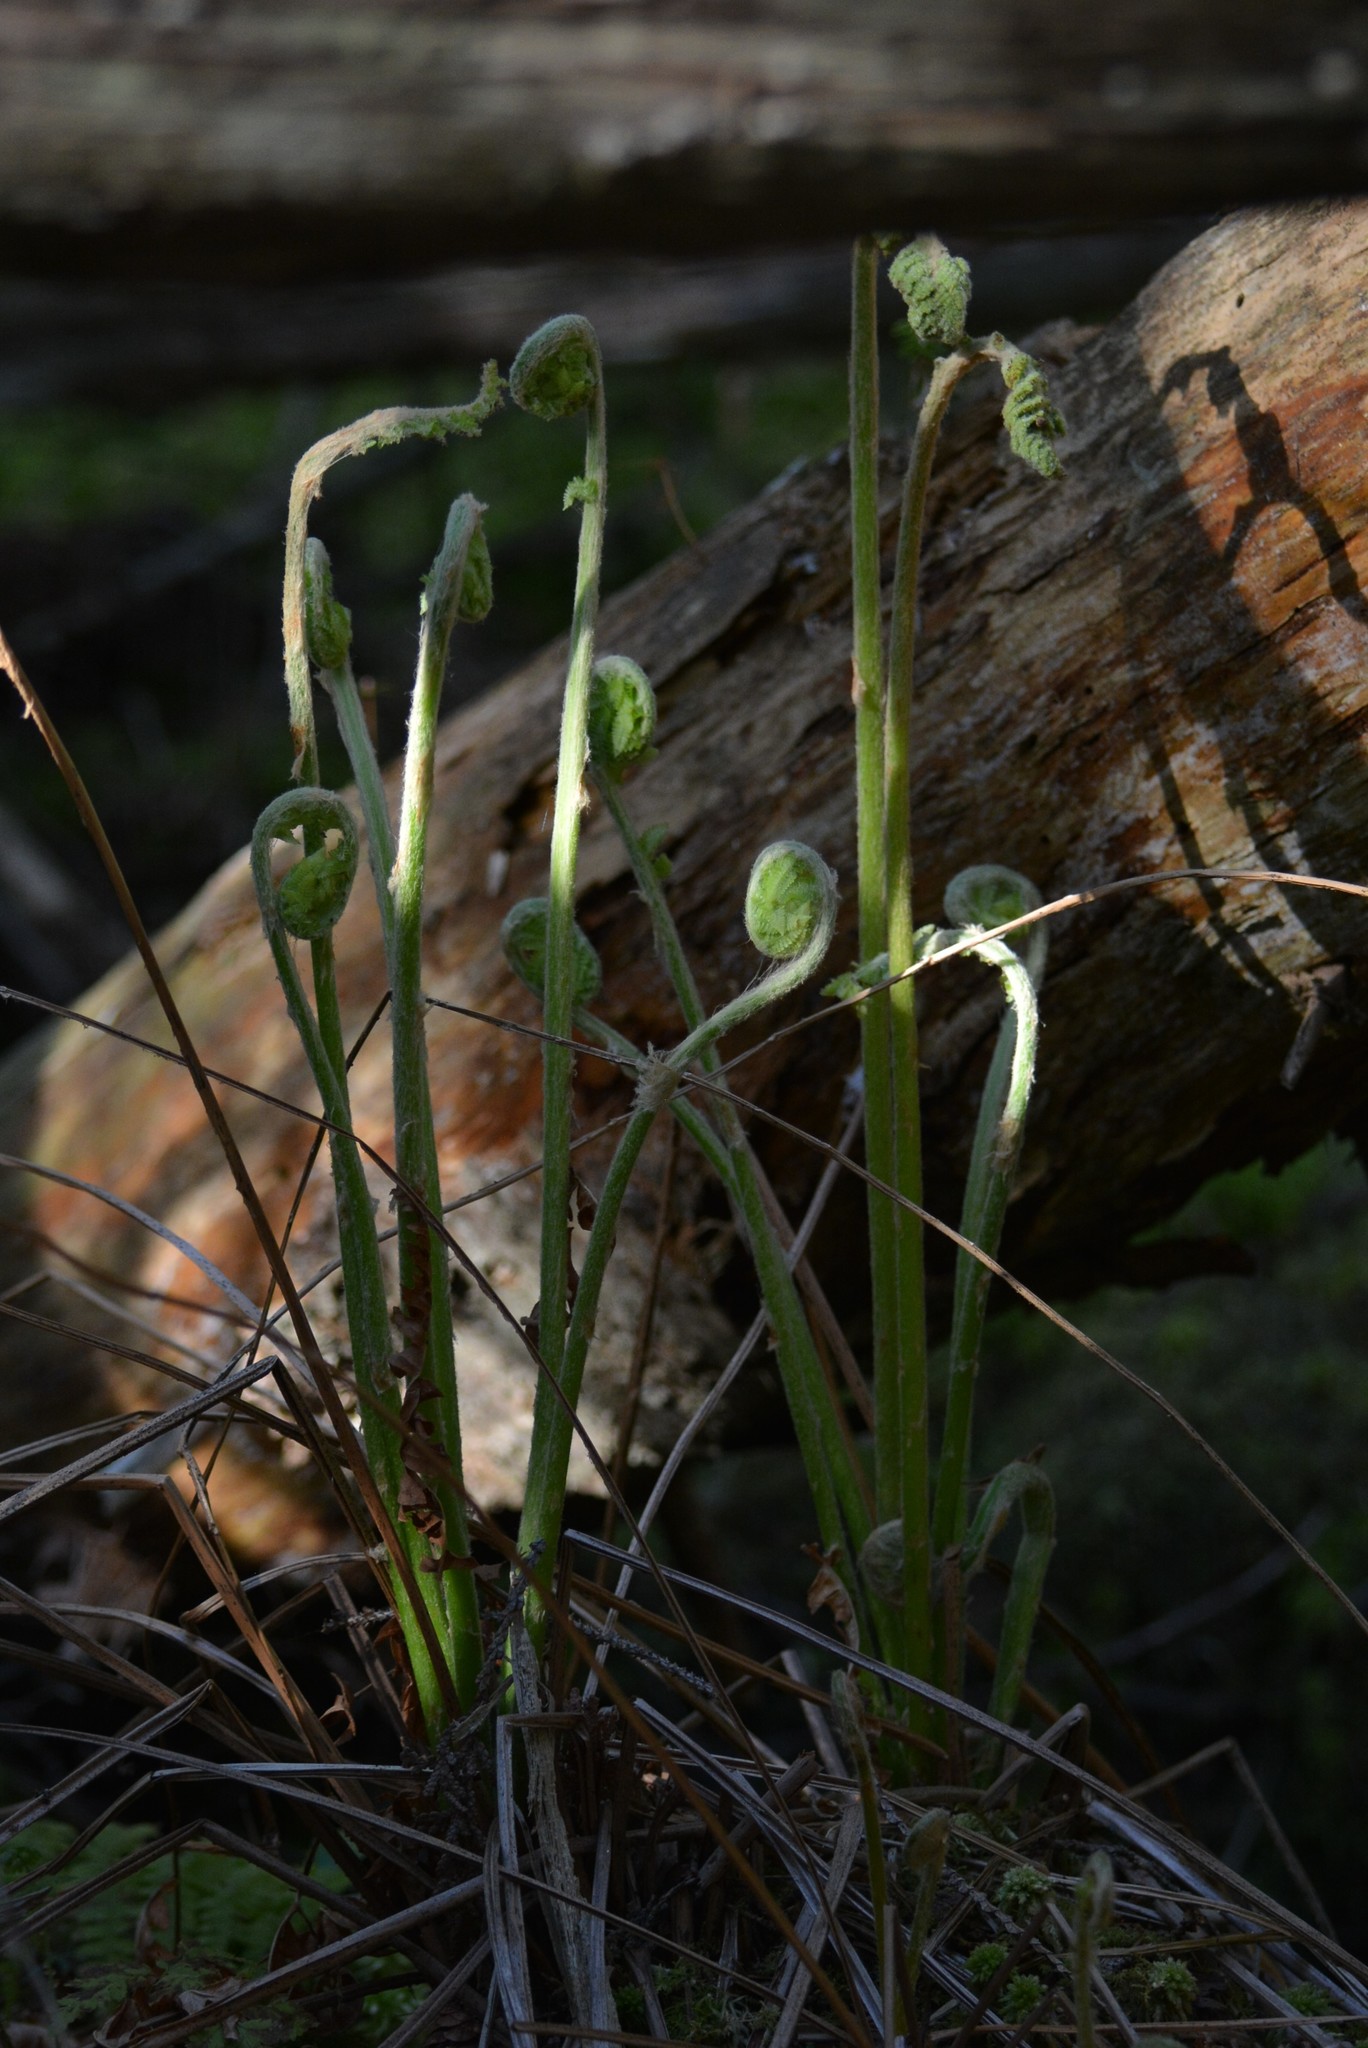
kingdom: Plantae
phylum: Tracheophyta
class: Polypodiopsida
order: Osmundales
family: Osmundaceae
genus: Osmundastrum
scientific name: Osmundastrum cinnamomeum
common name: Cinnamon fern
